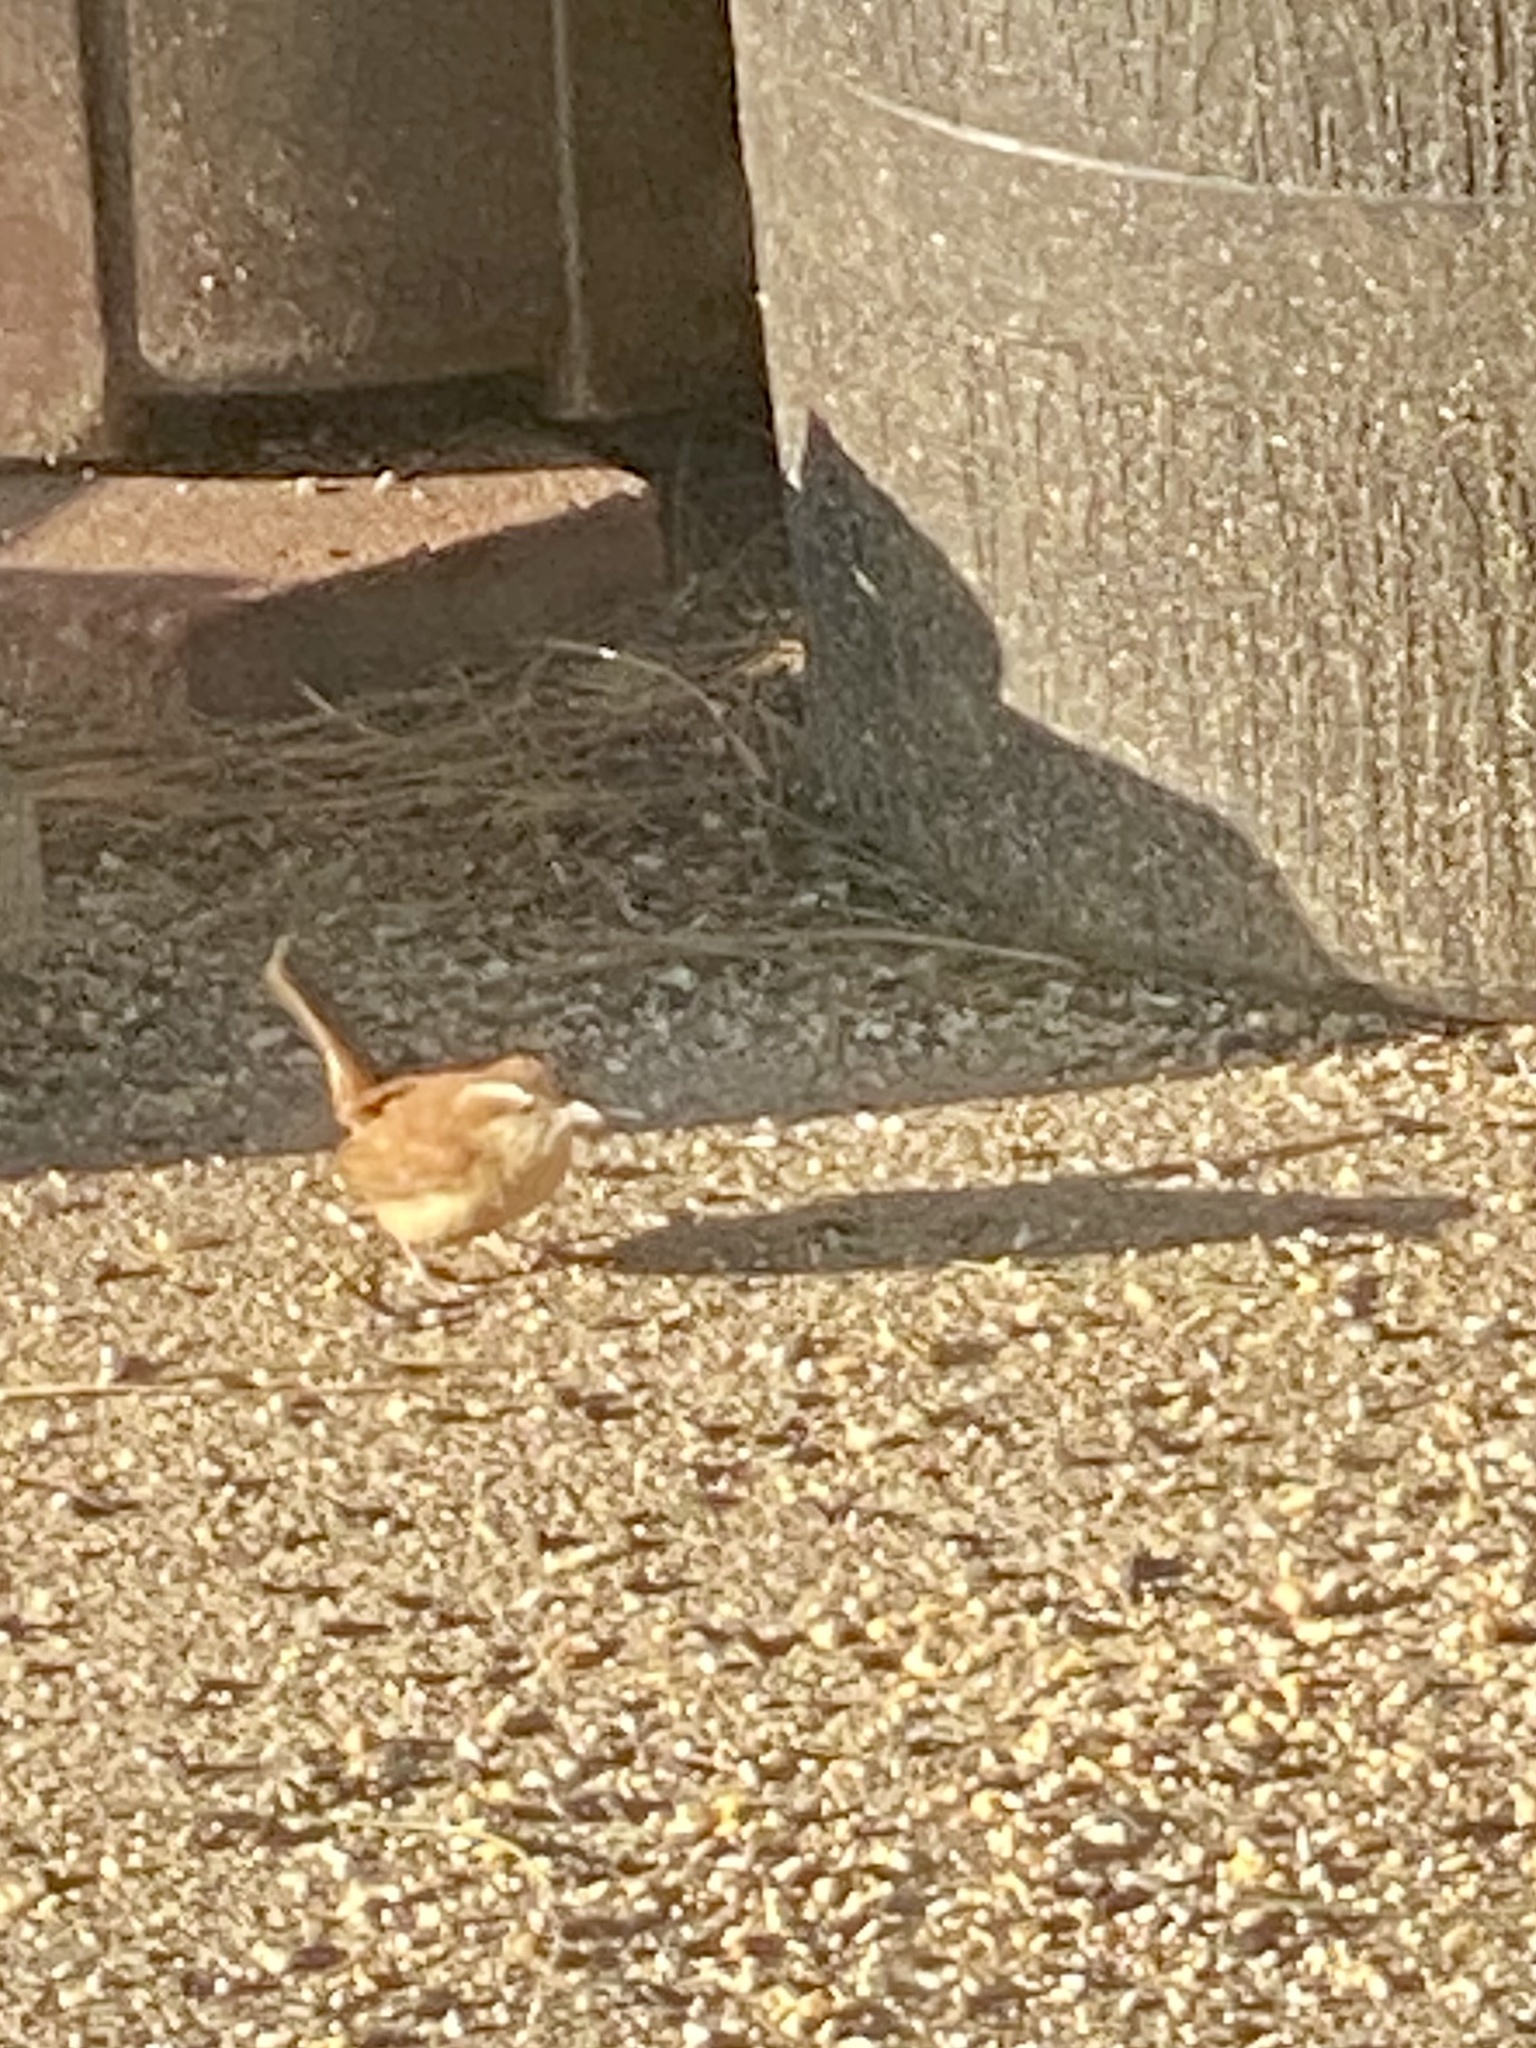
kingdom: Animalia
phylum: Chordata
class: Aves
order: Passeriformes
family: Troglodytidae
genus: Thryothorus
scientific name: Thryothorus ludovicianus
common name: Carolina wren
